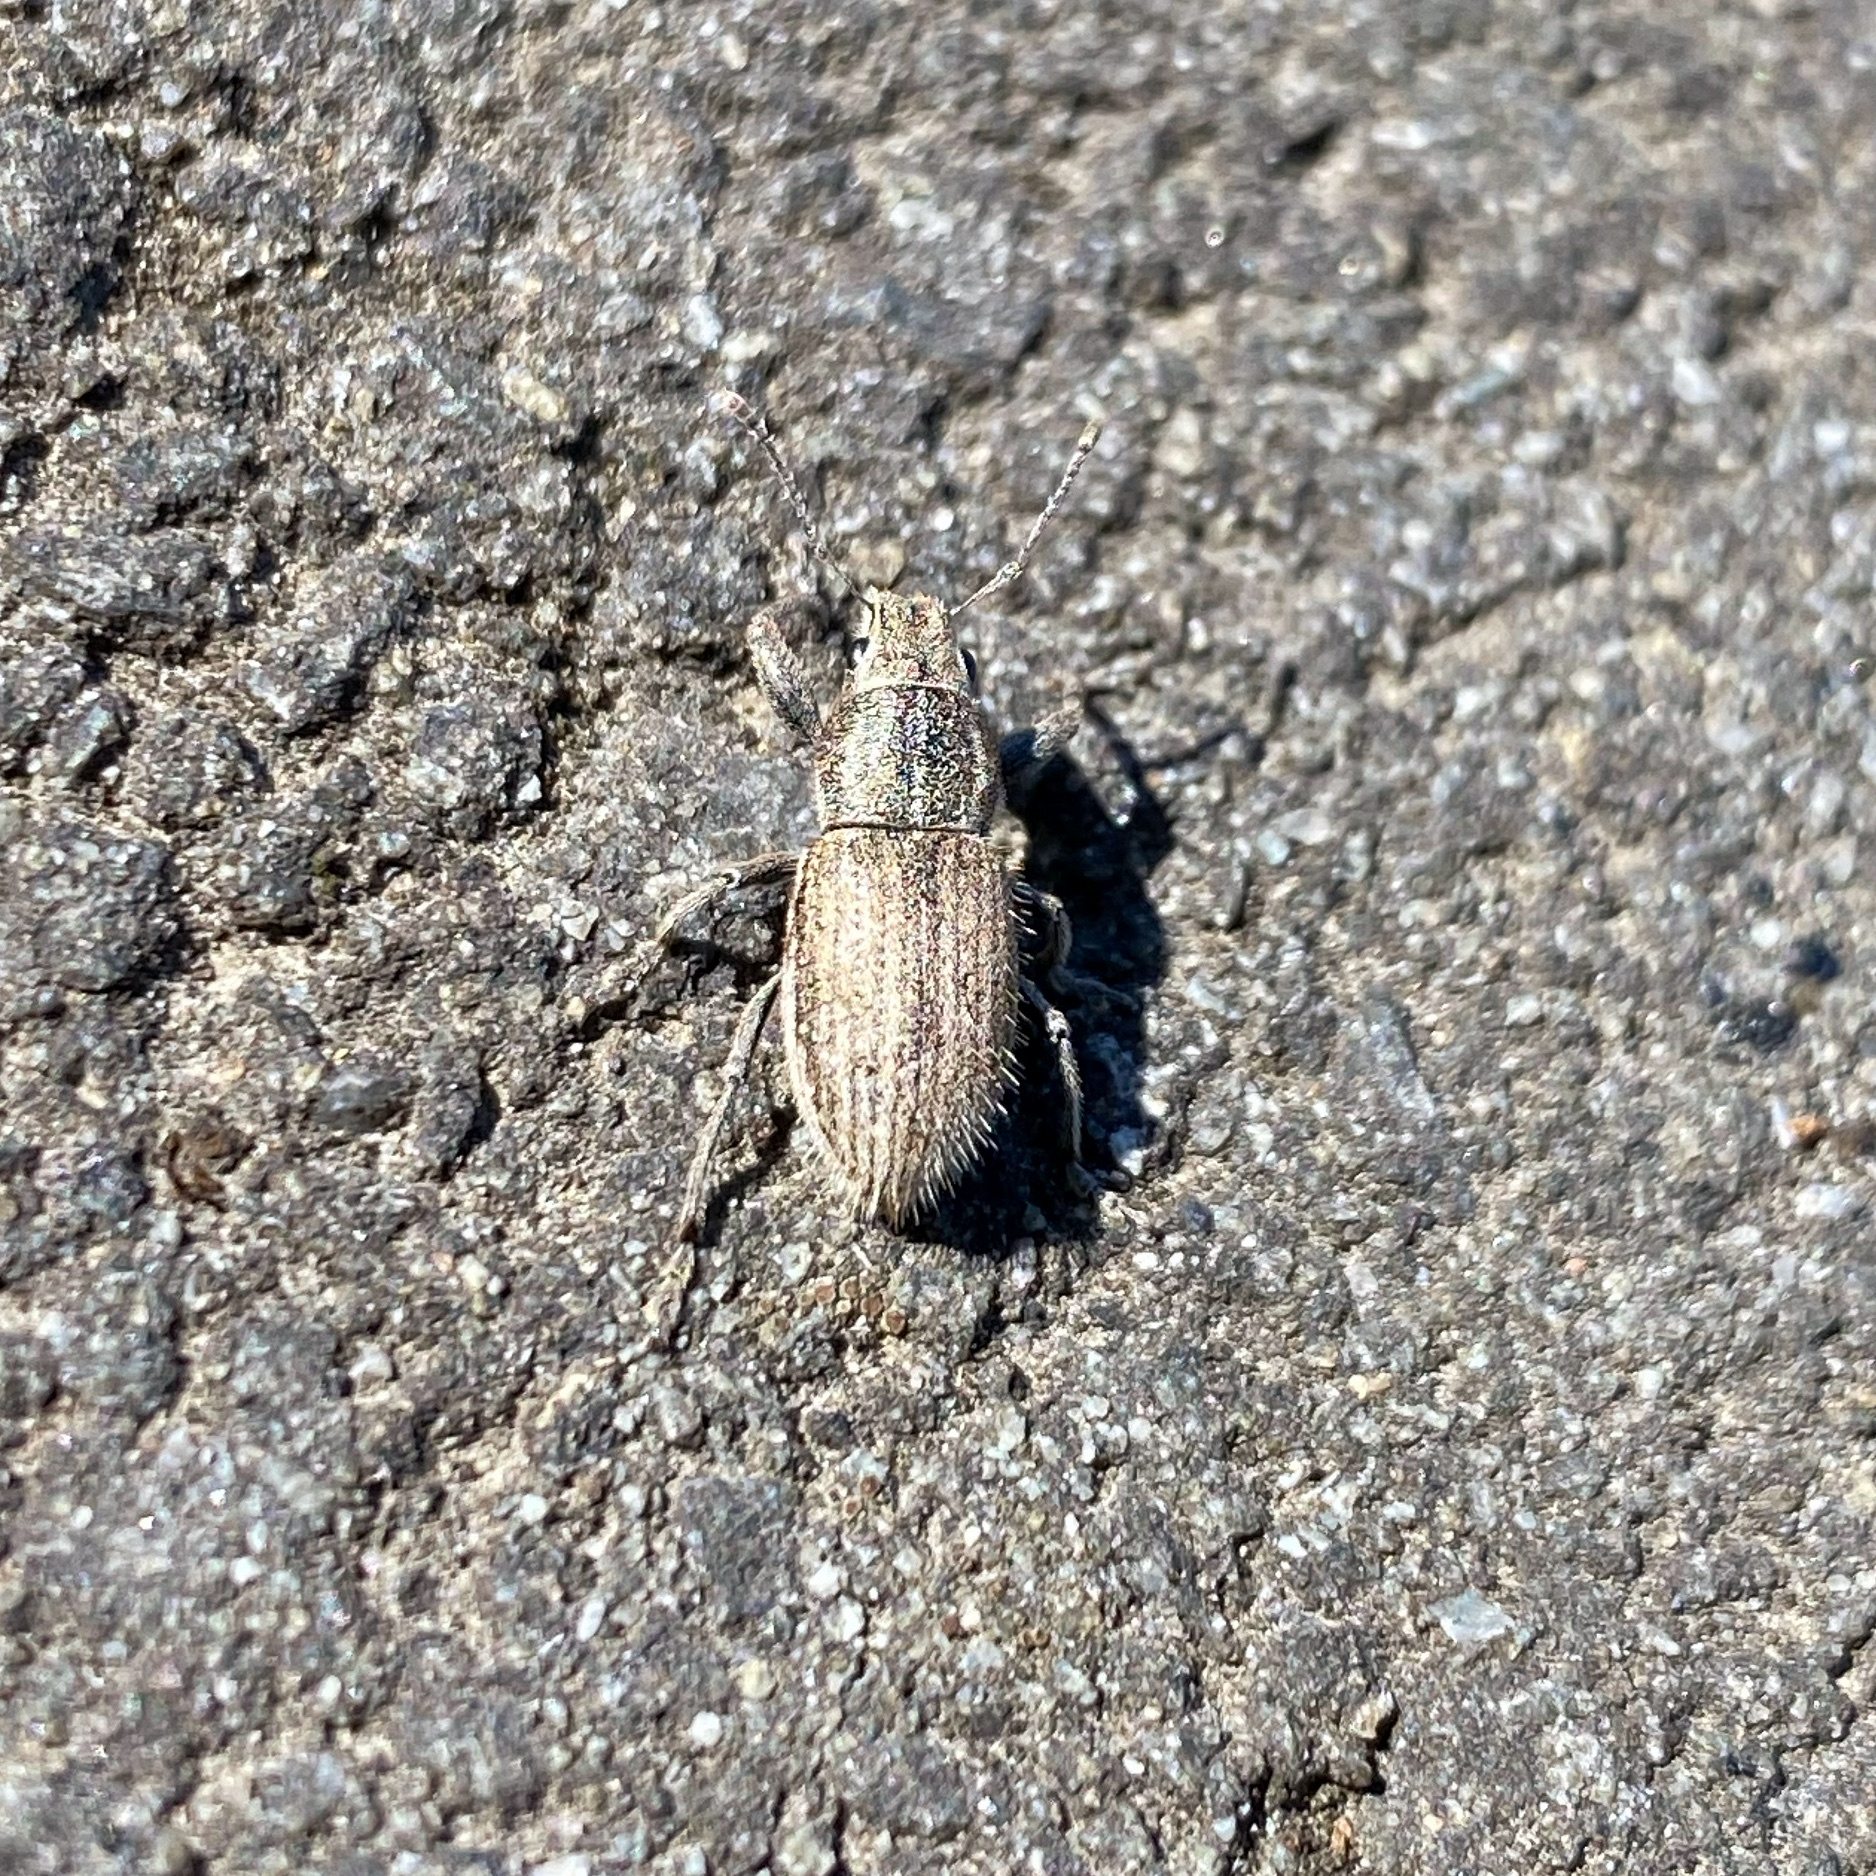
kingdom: Animalia
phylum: Arthropoda
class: Insecta
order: Coleoptera
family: Curculionidae
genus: Naupactus
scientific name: Naupactus leucoloma
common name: Whitefringed beetle
